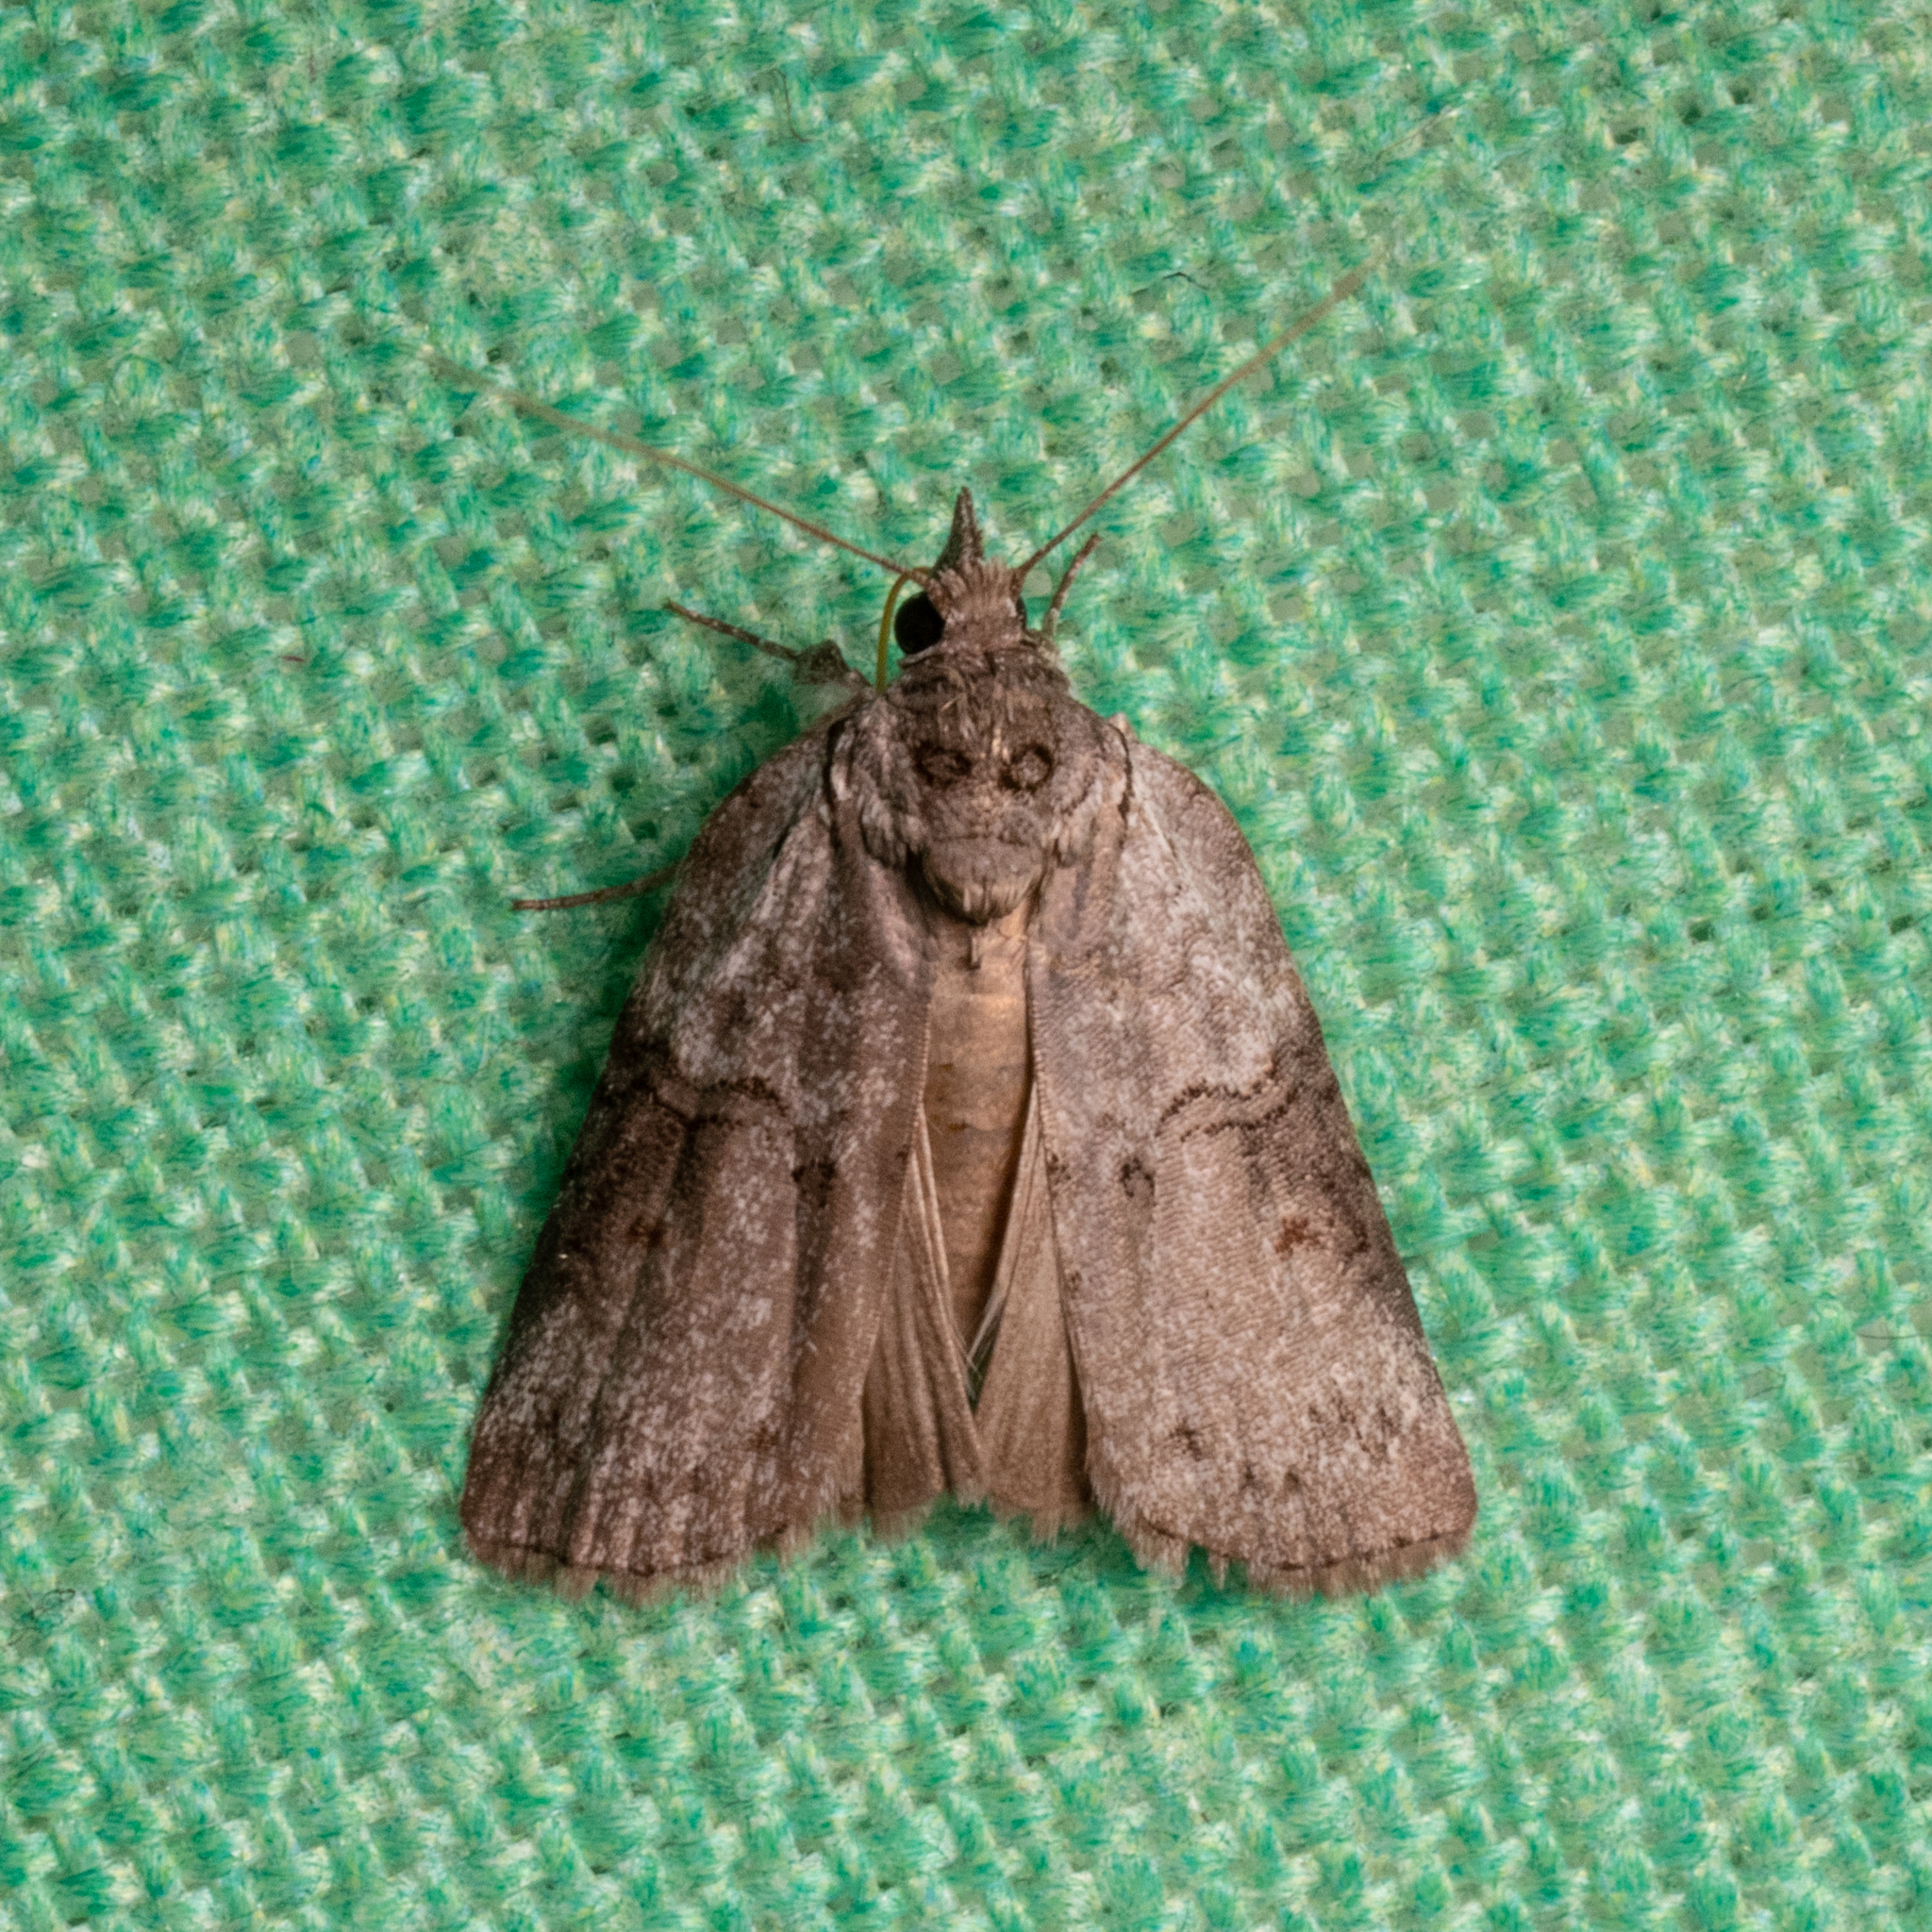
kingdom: Animalia
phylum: Arthropoda
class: Insecta
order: Lepidoptera
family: Nolidae
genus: Nycteola
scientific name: Nycteola metaspilella
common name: Forgotten frigid owlet
